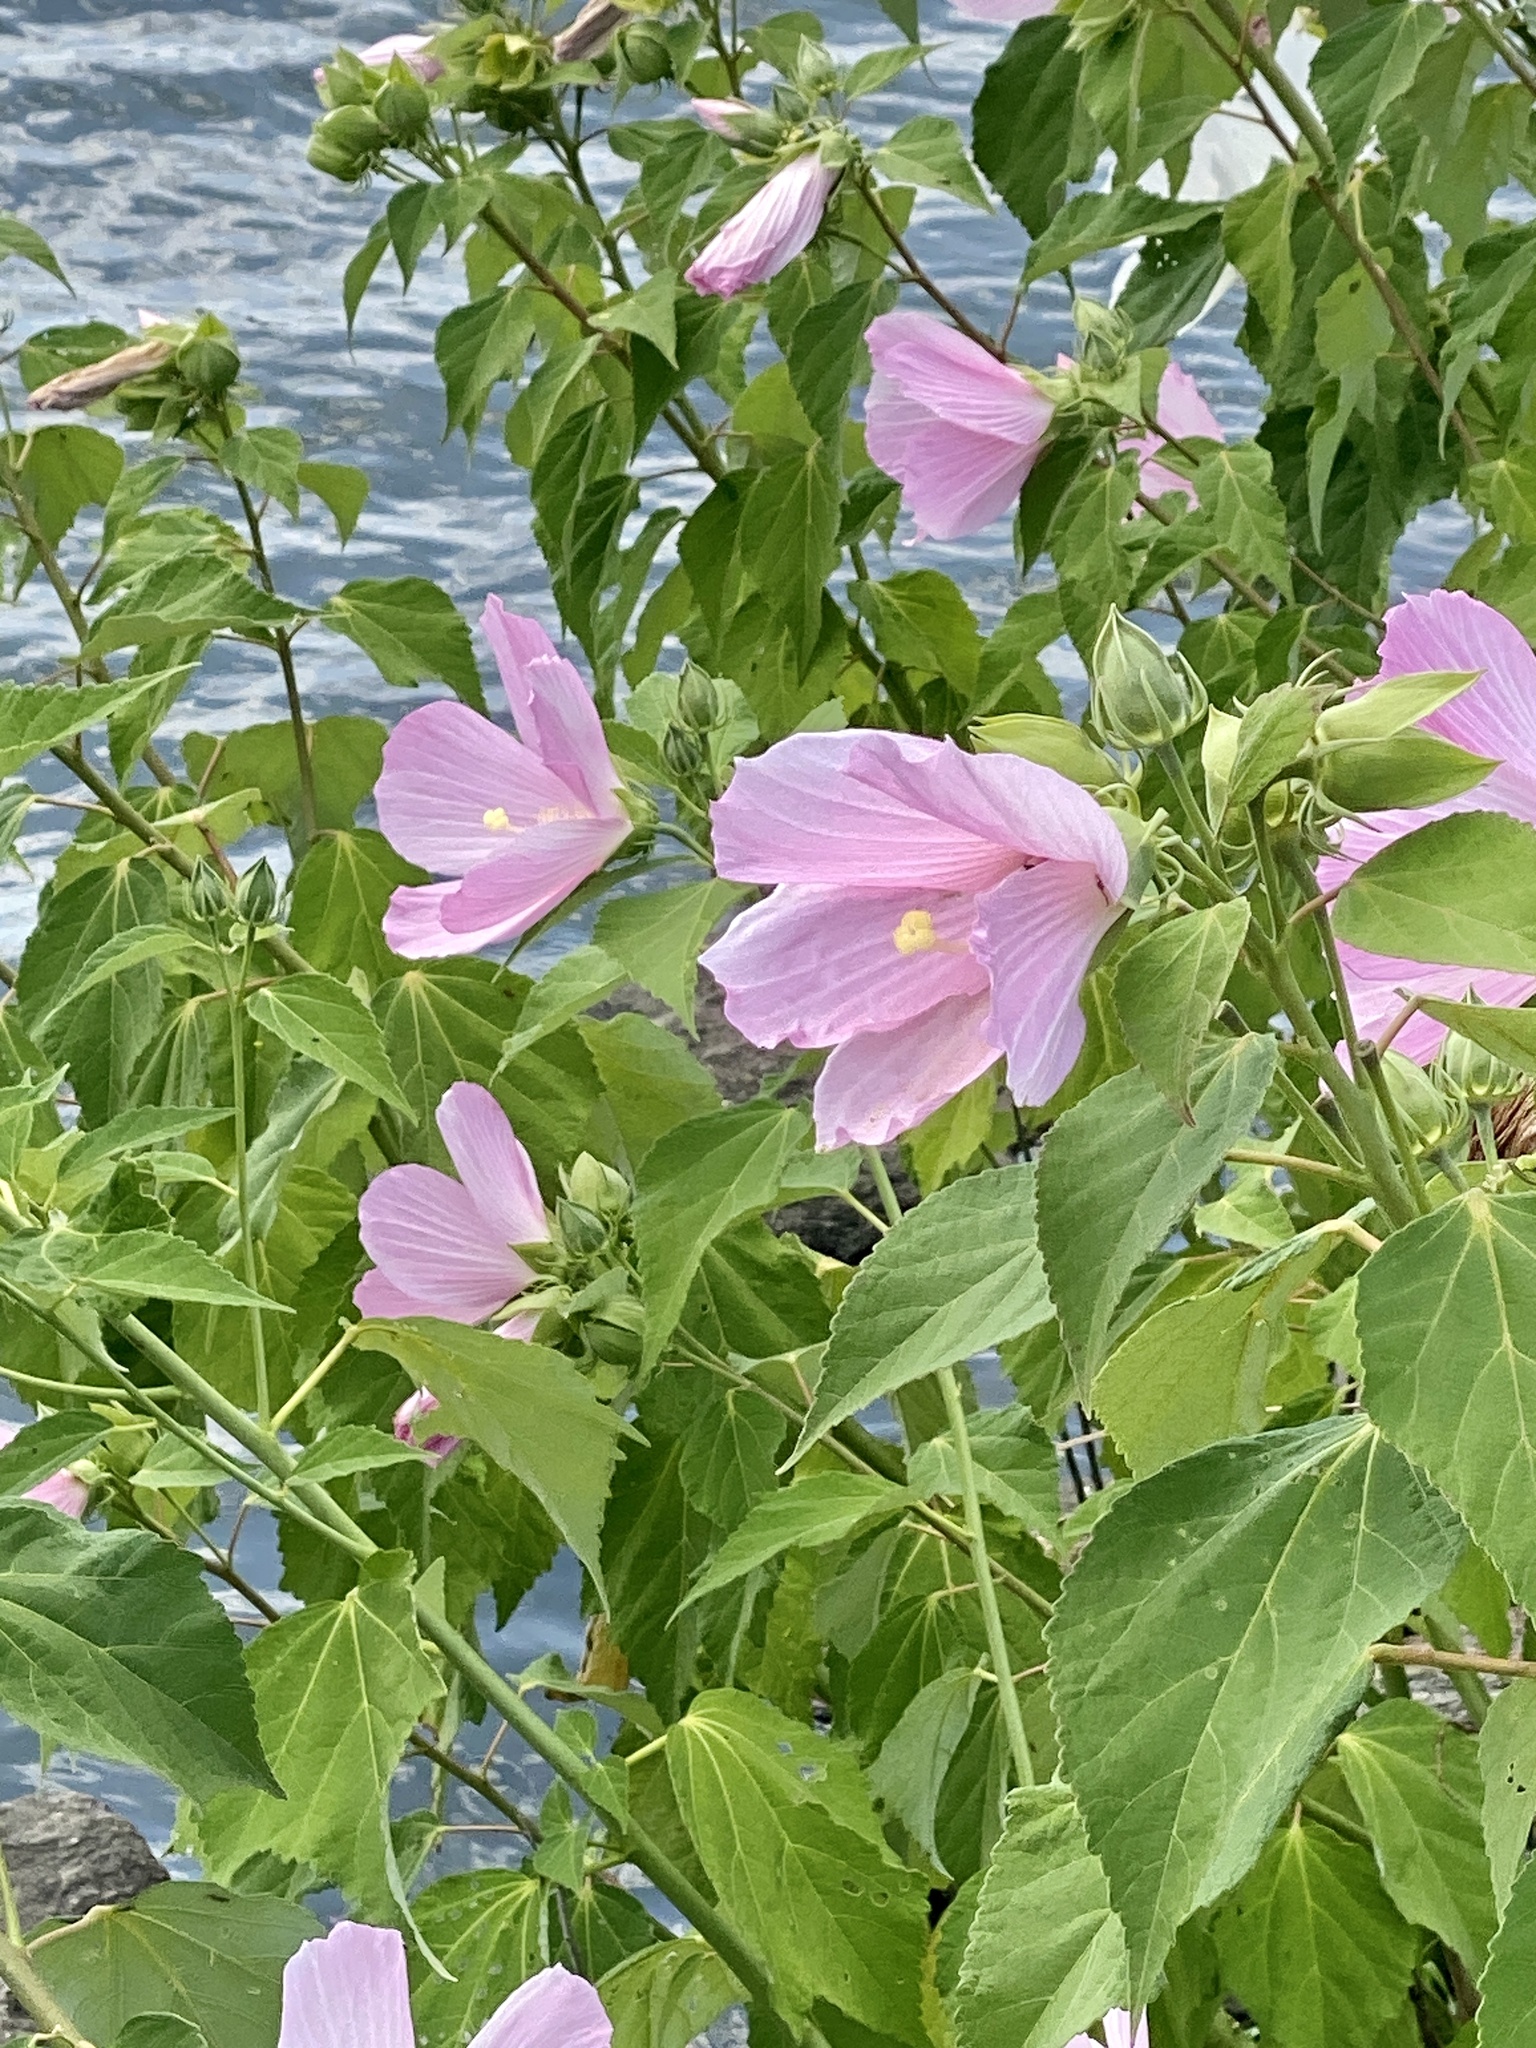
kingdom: Plantae
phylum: Tracheophyta
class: Magnoliopsida
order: Malvales
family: Malvaceae
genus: Hibiscus
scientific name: Hibiscus moscheutos
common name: Common rose-mallow
